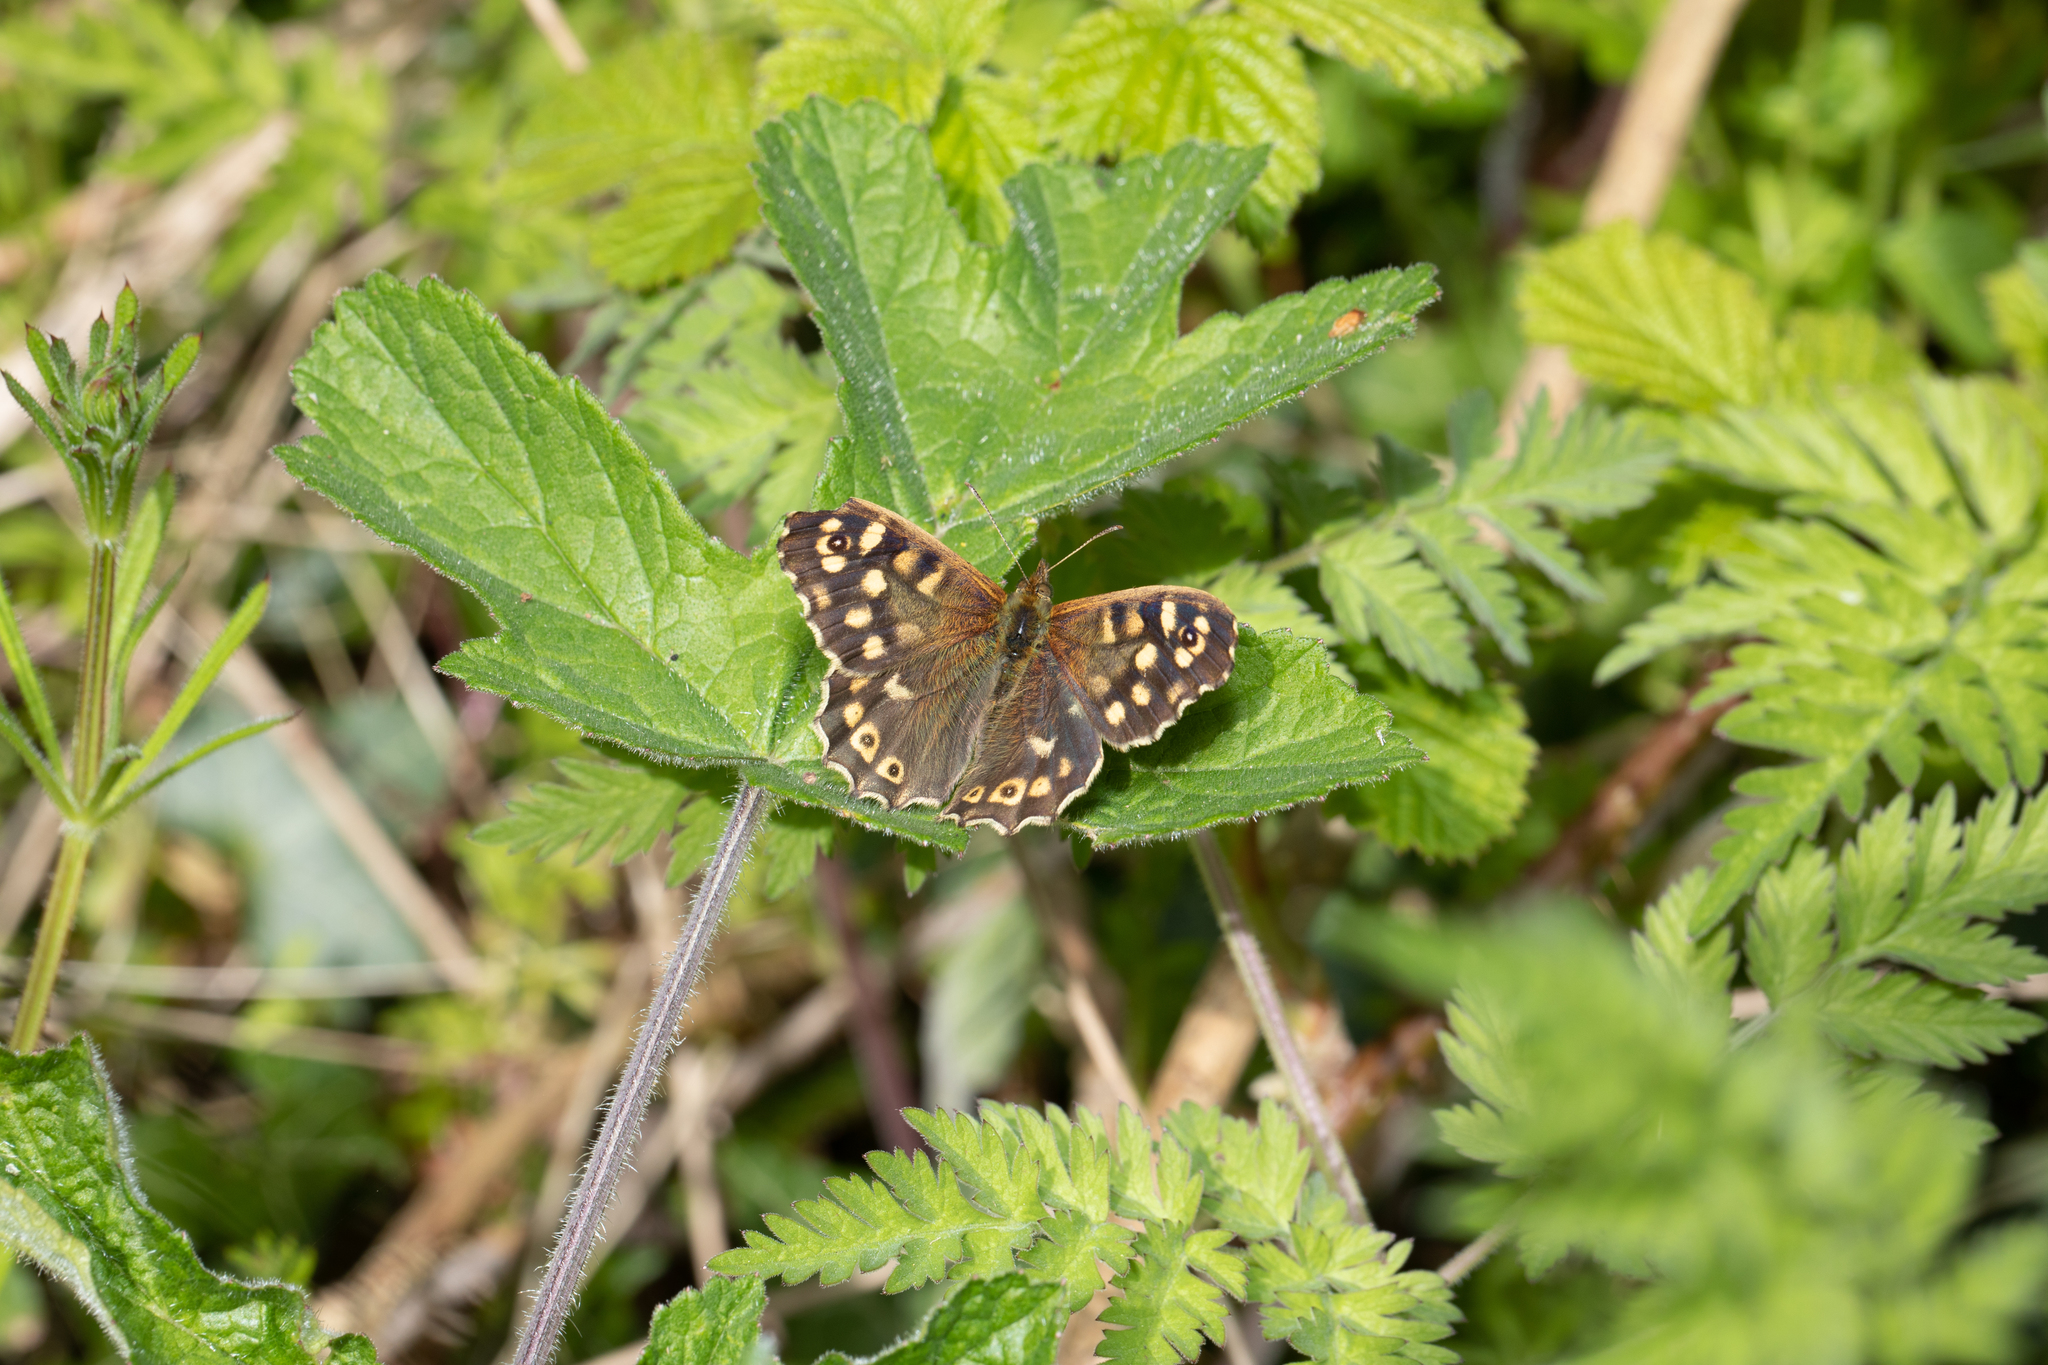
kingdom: Animalia
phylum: Arthropoda
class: Insecta
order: Lepidoptera
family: Nymphalidae
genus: Pararge
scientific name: Pararge aegeria
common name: Speckled wood
